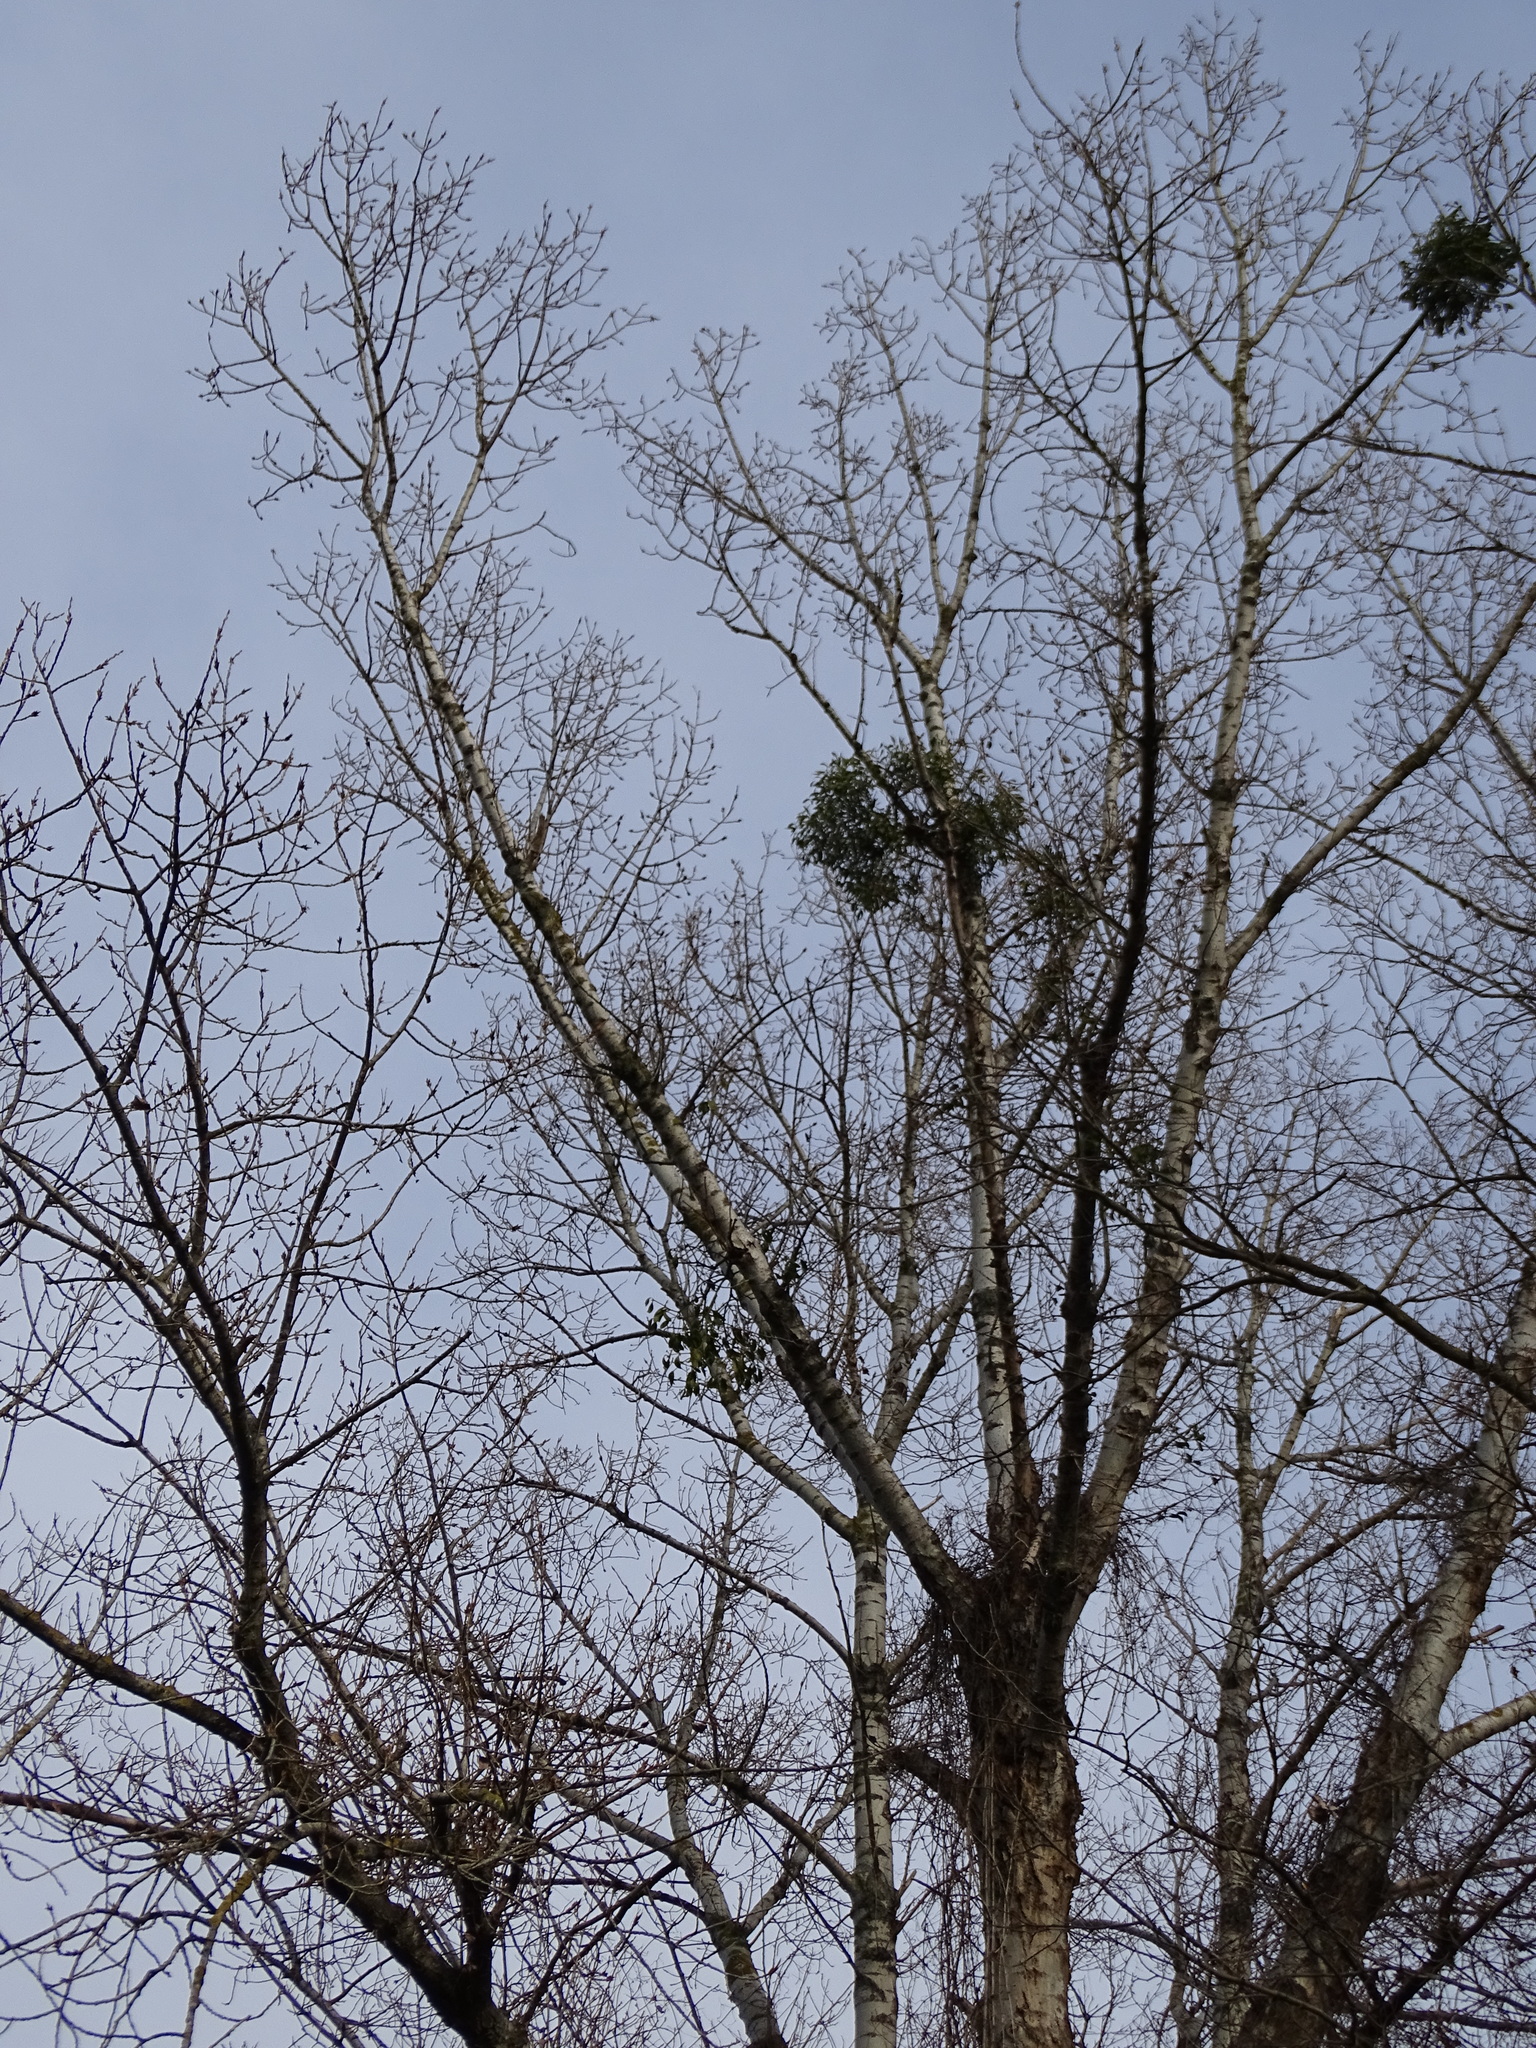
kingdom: Plantae
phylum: Tracheophyta
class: Magnoliopsida
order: Santalales
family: Viscaceae
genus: Viscum
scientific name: Viscum album
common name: Mistletoe
